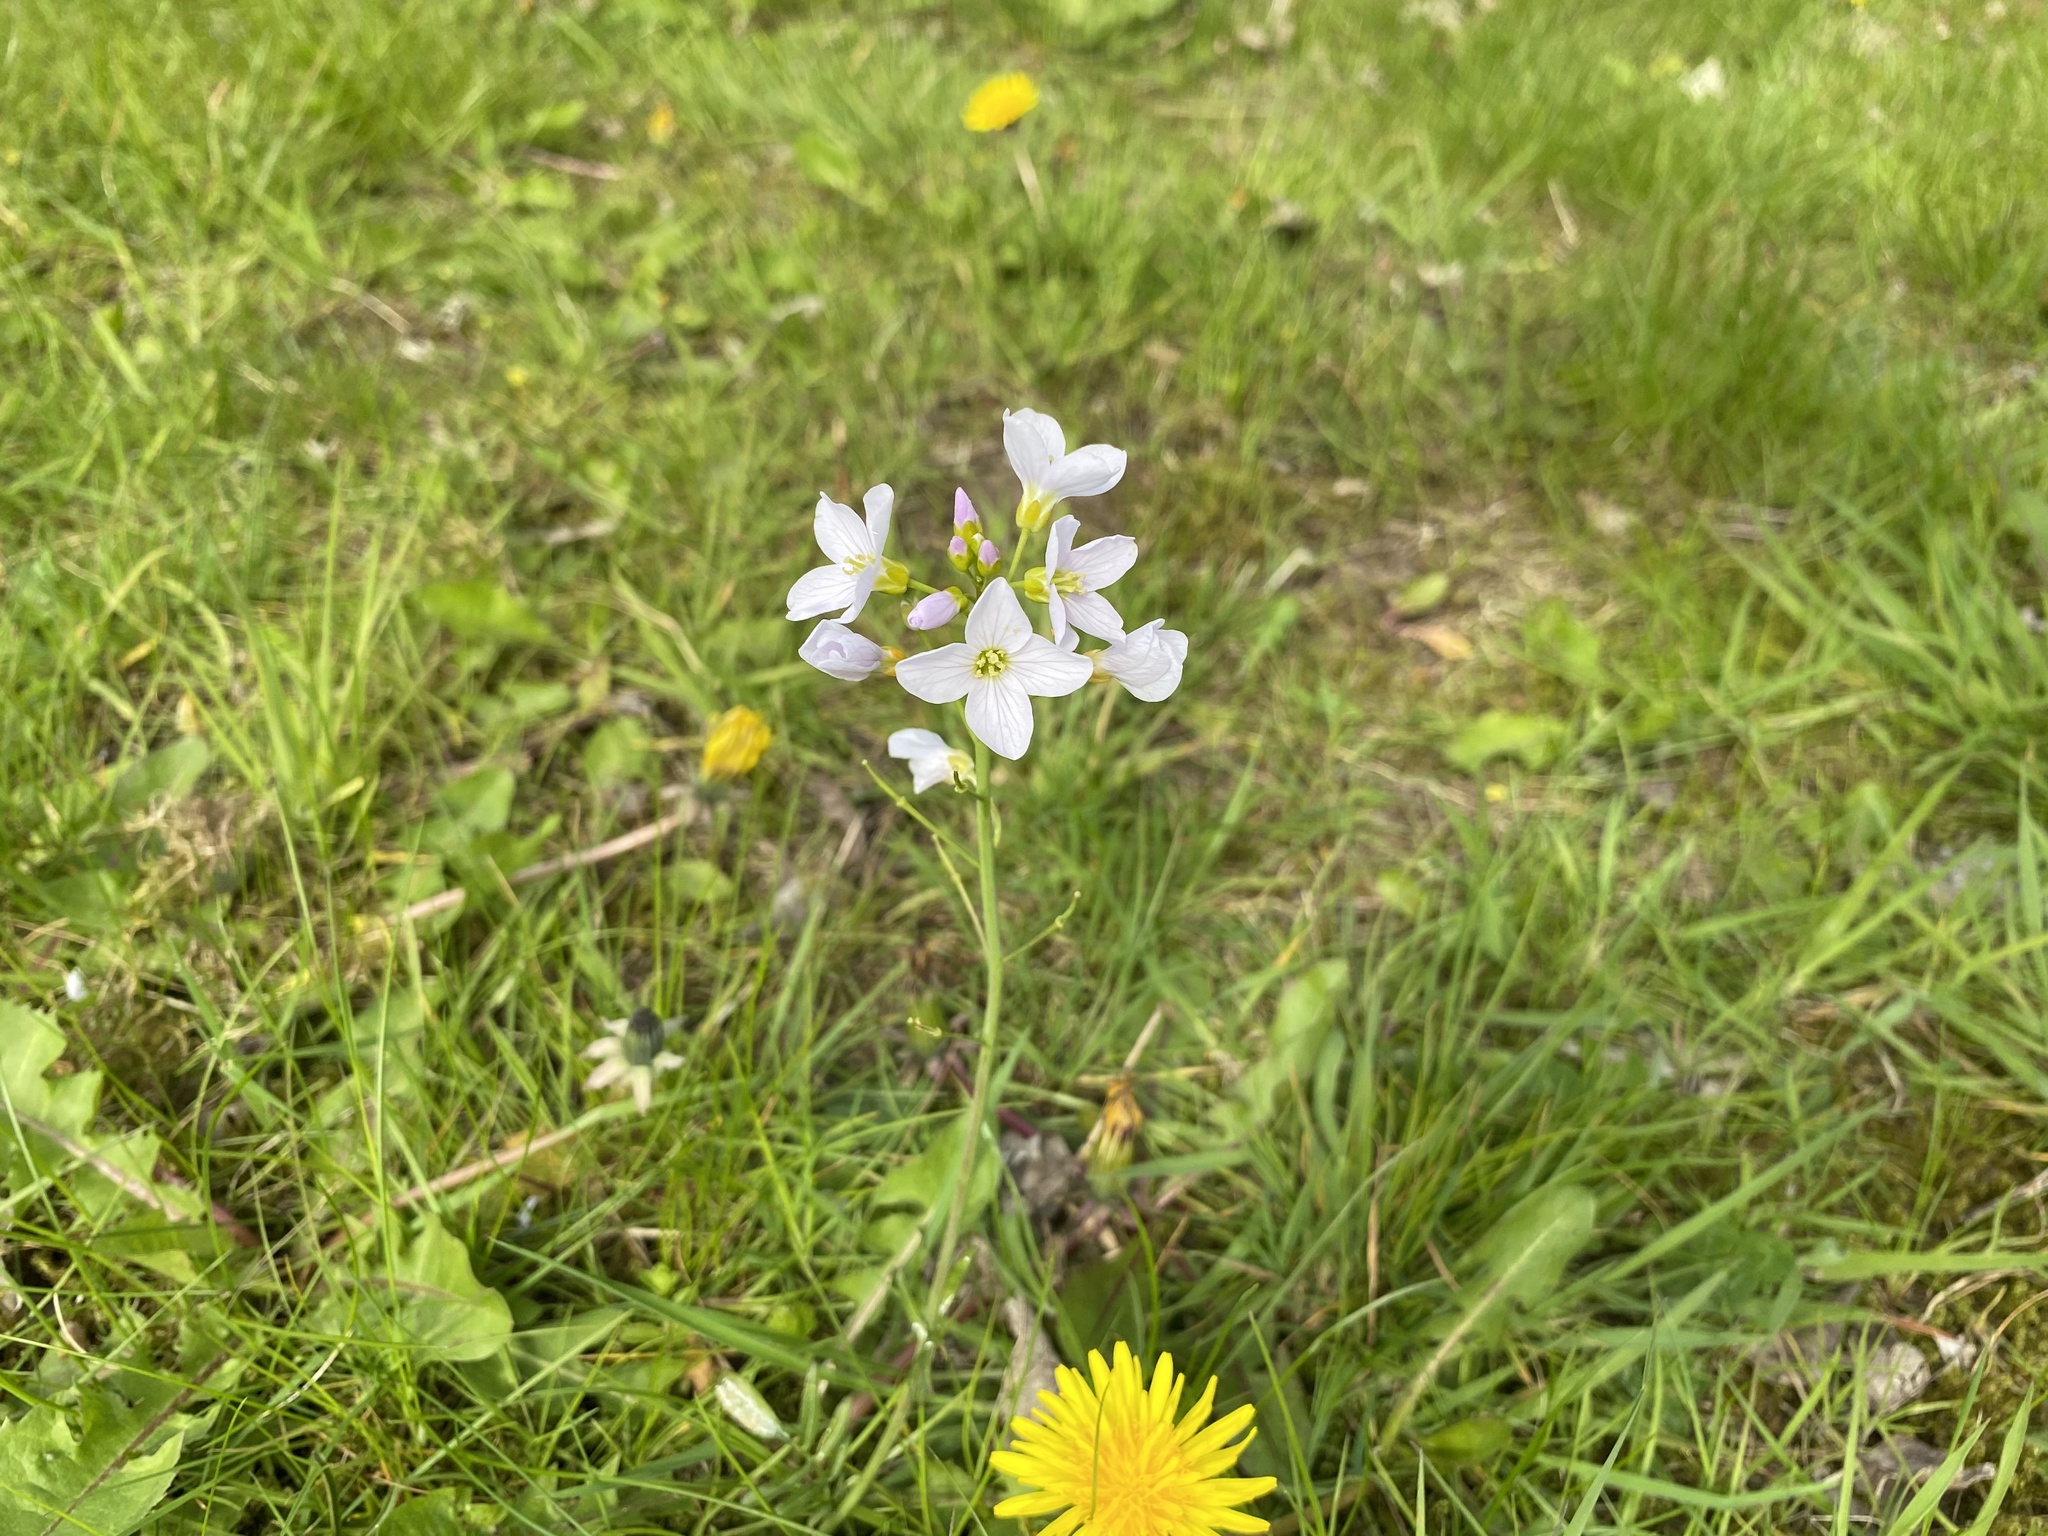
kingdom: Plantae
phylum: Tracheophyta
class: Magnoliopsida
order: Brassicales
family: Brassicaceae
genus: Cardamine
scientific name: Cardamine pratensis
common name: Cuckoo flower
